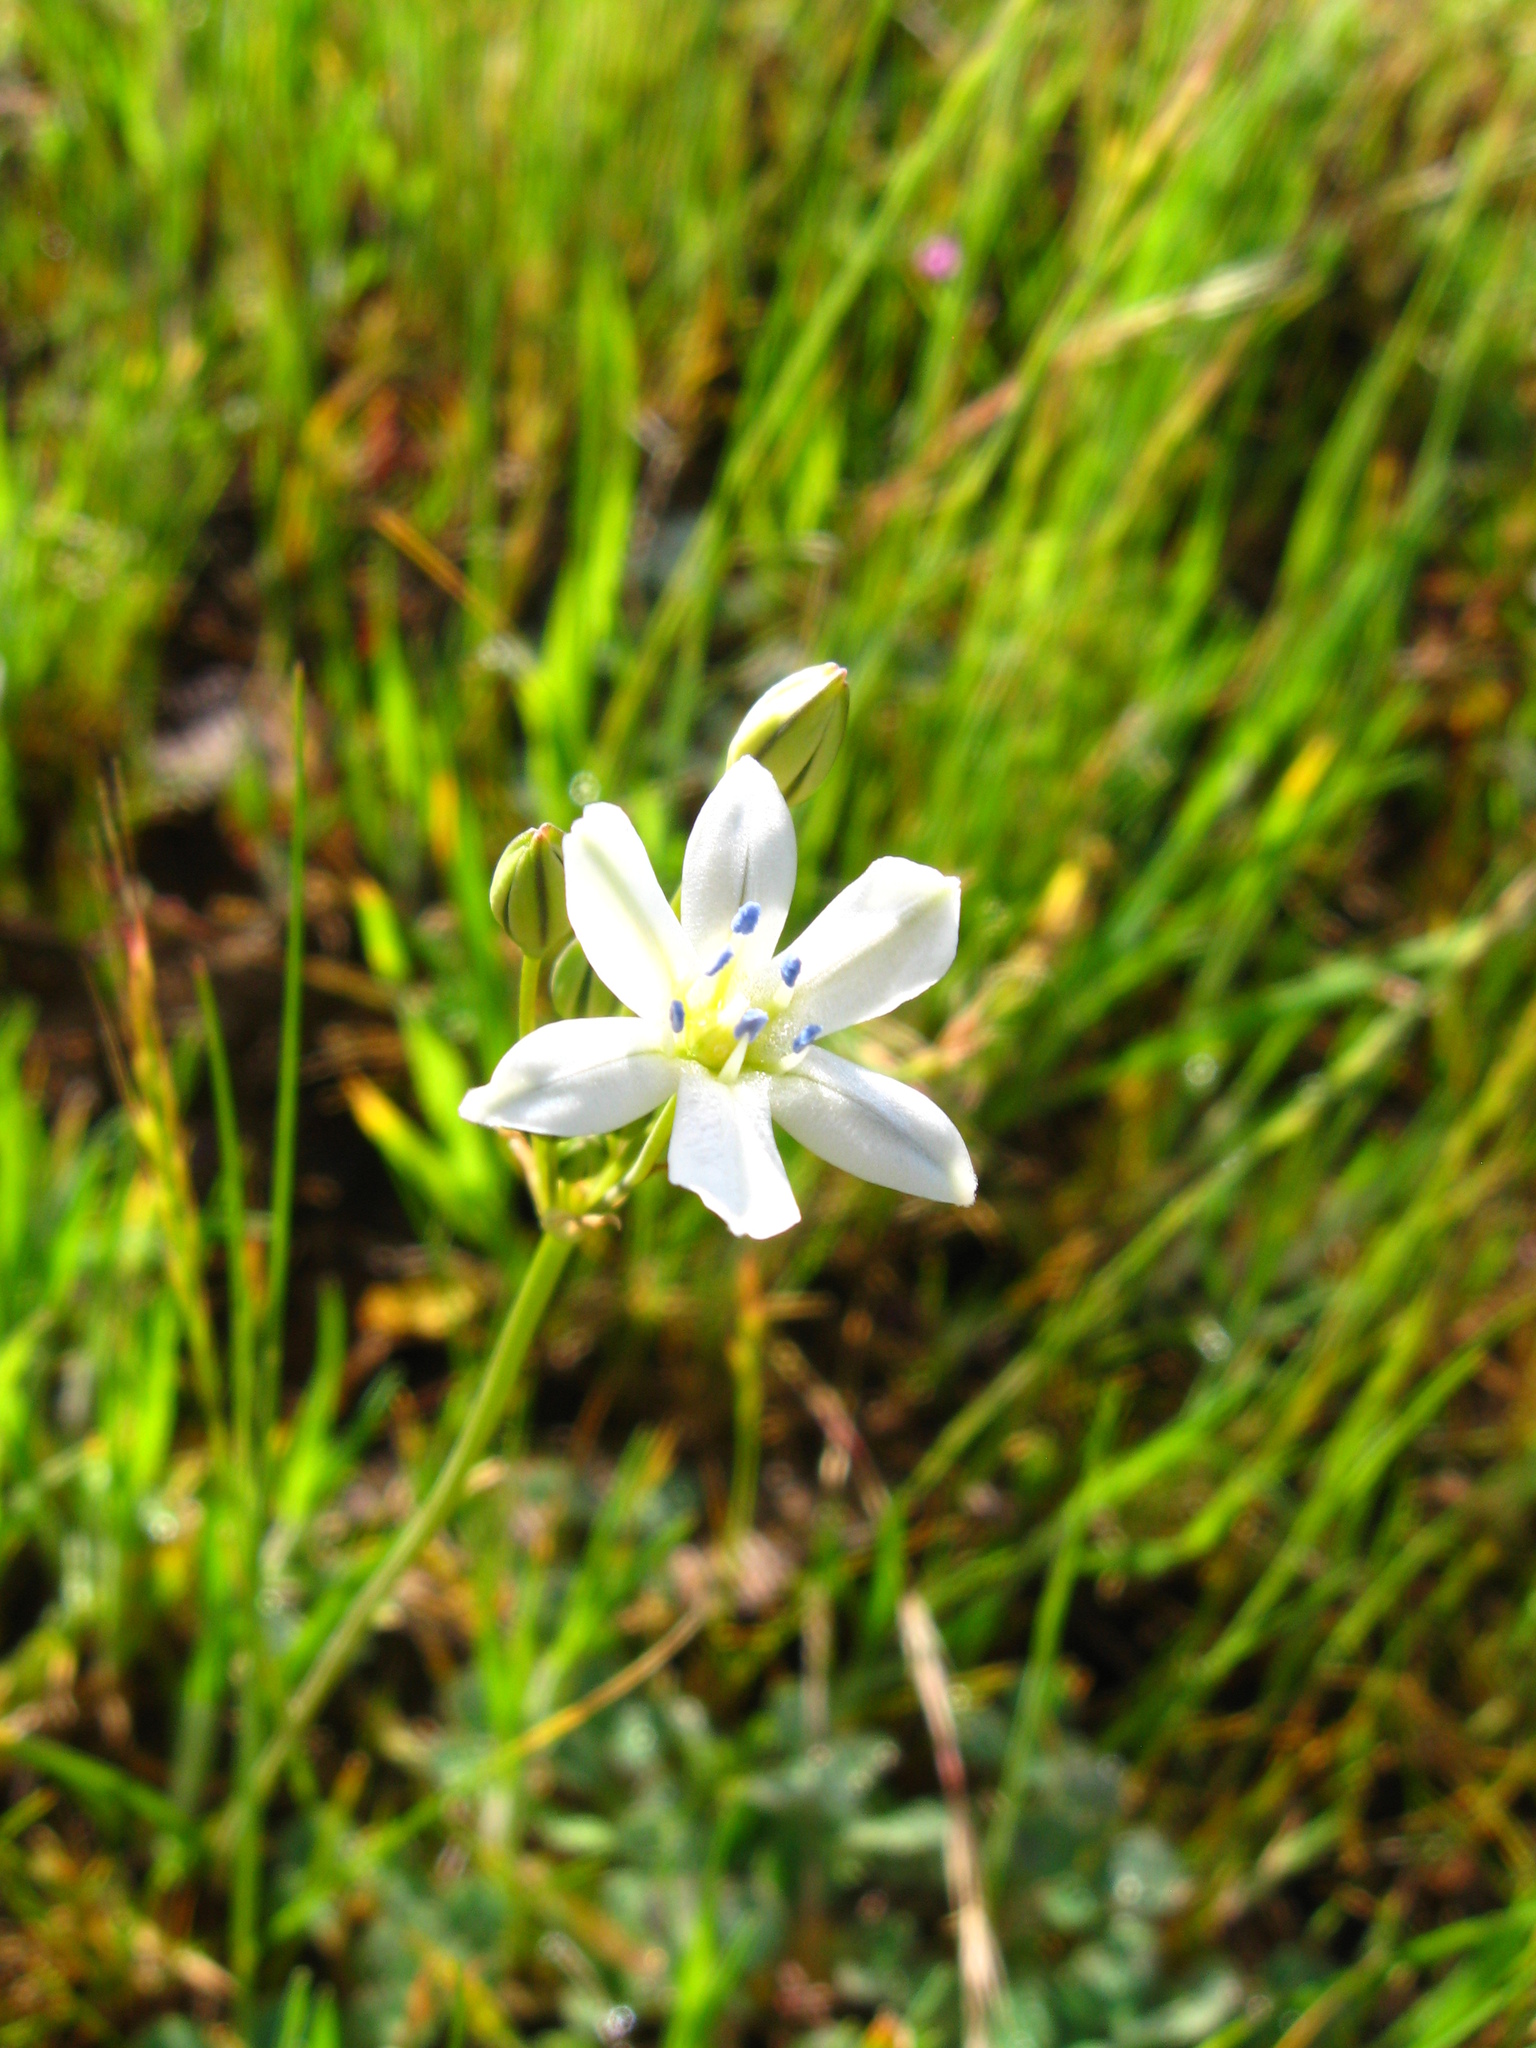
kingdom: Plantae
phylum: Tracheophyta
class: Liliopsida
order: Asparagales
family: Asparagaceae
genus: Triteleia
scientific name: Triteleia lilacina
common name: Lilac-flower wild hyacinth
